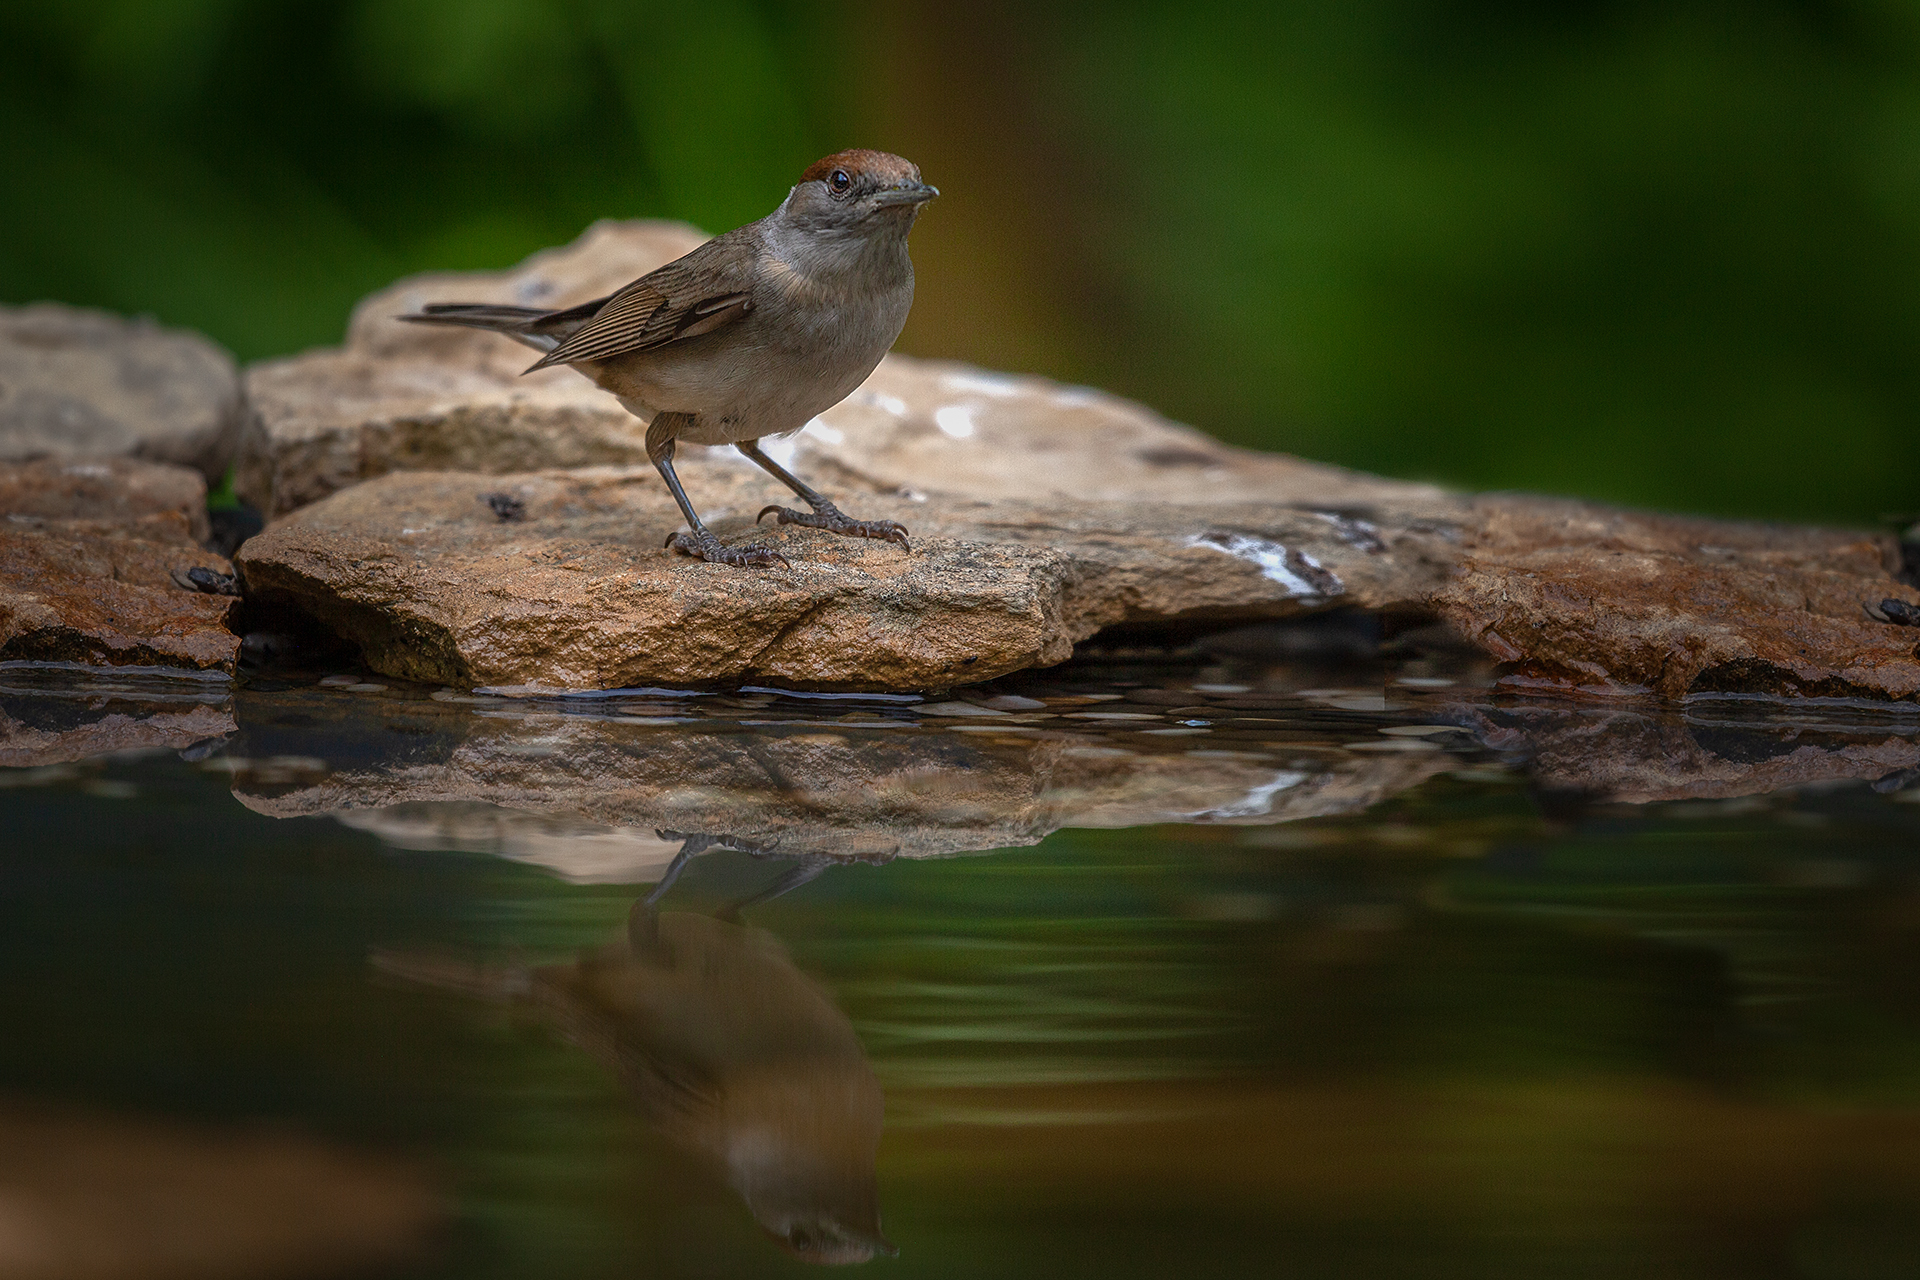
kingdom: Animalia
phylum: Chordata
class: Aves
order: Passeriformes
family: Sylviidae
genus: Sylvia
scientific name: Sylvia atricapilla
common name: Eurasian blackcap
